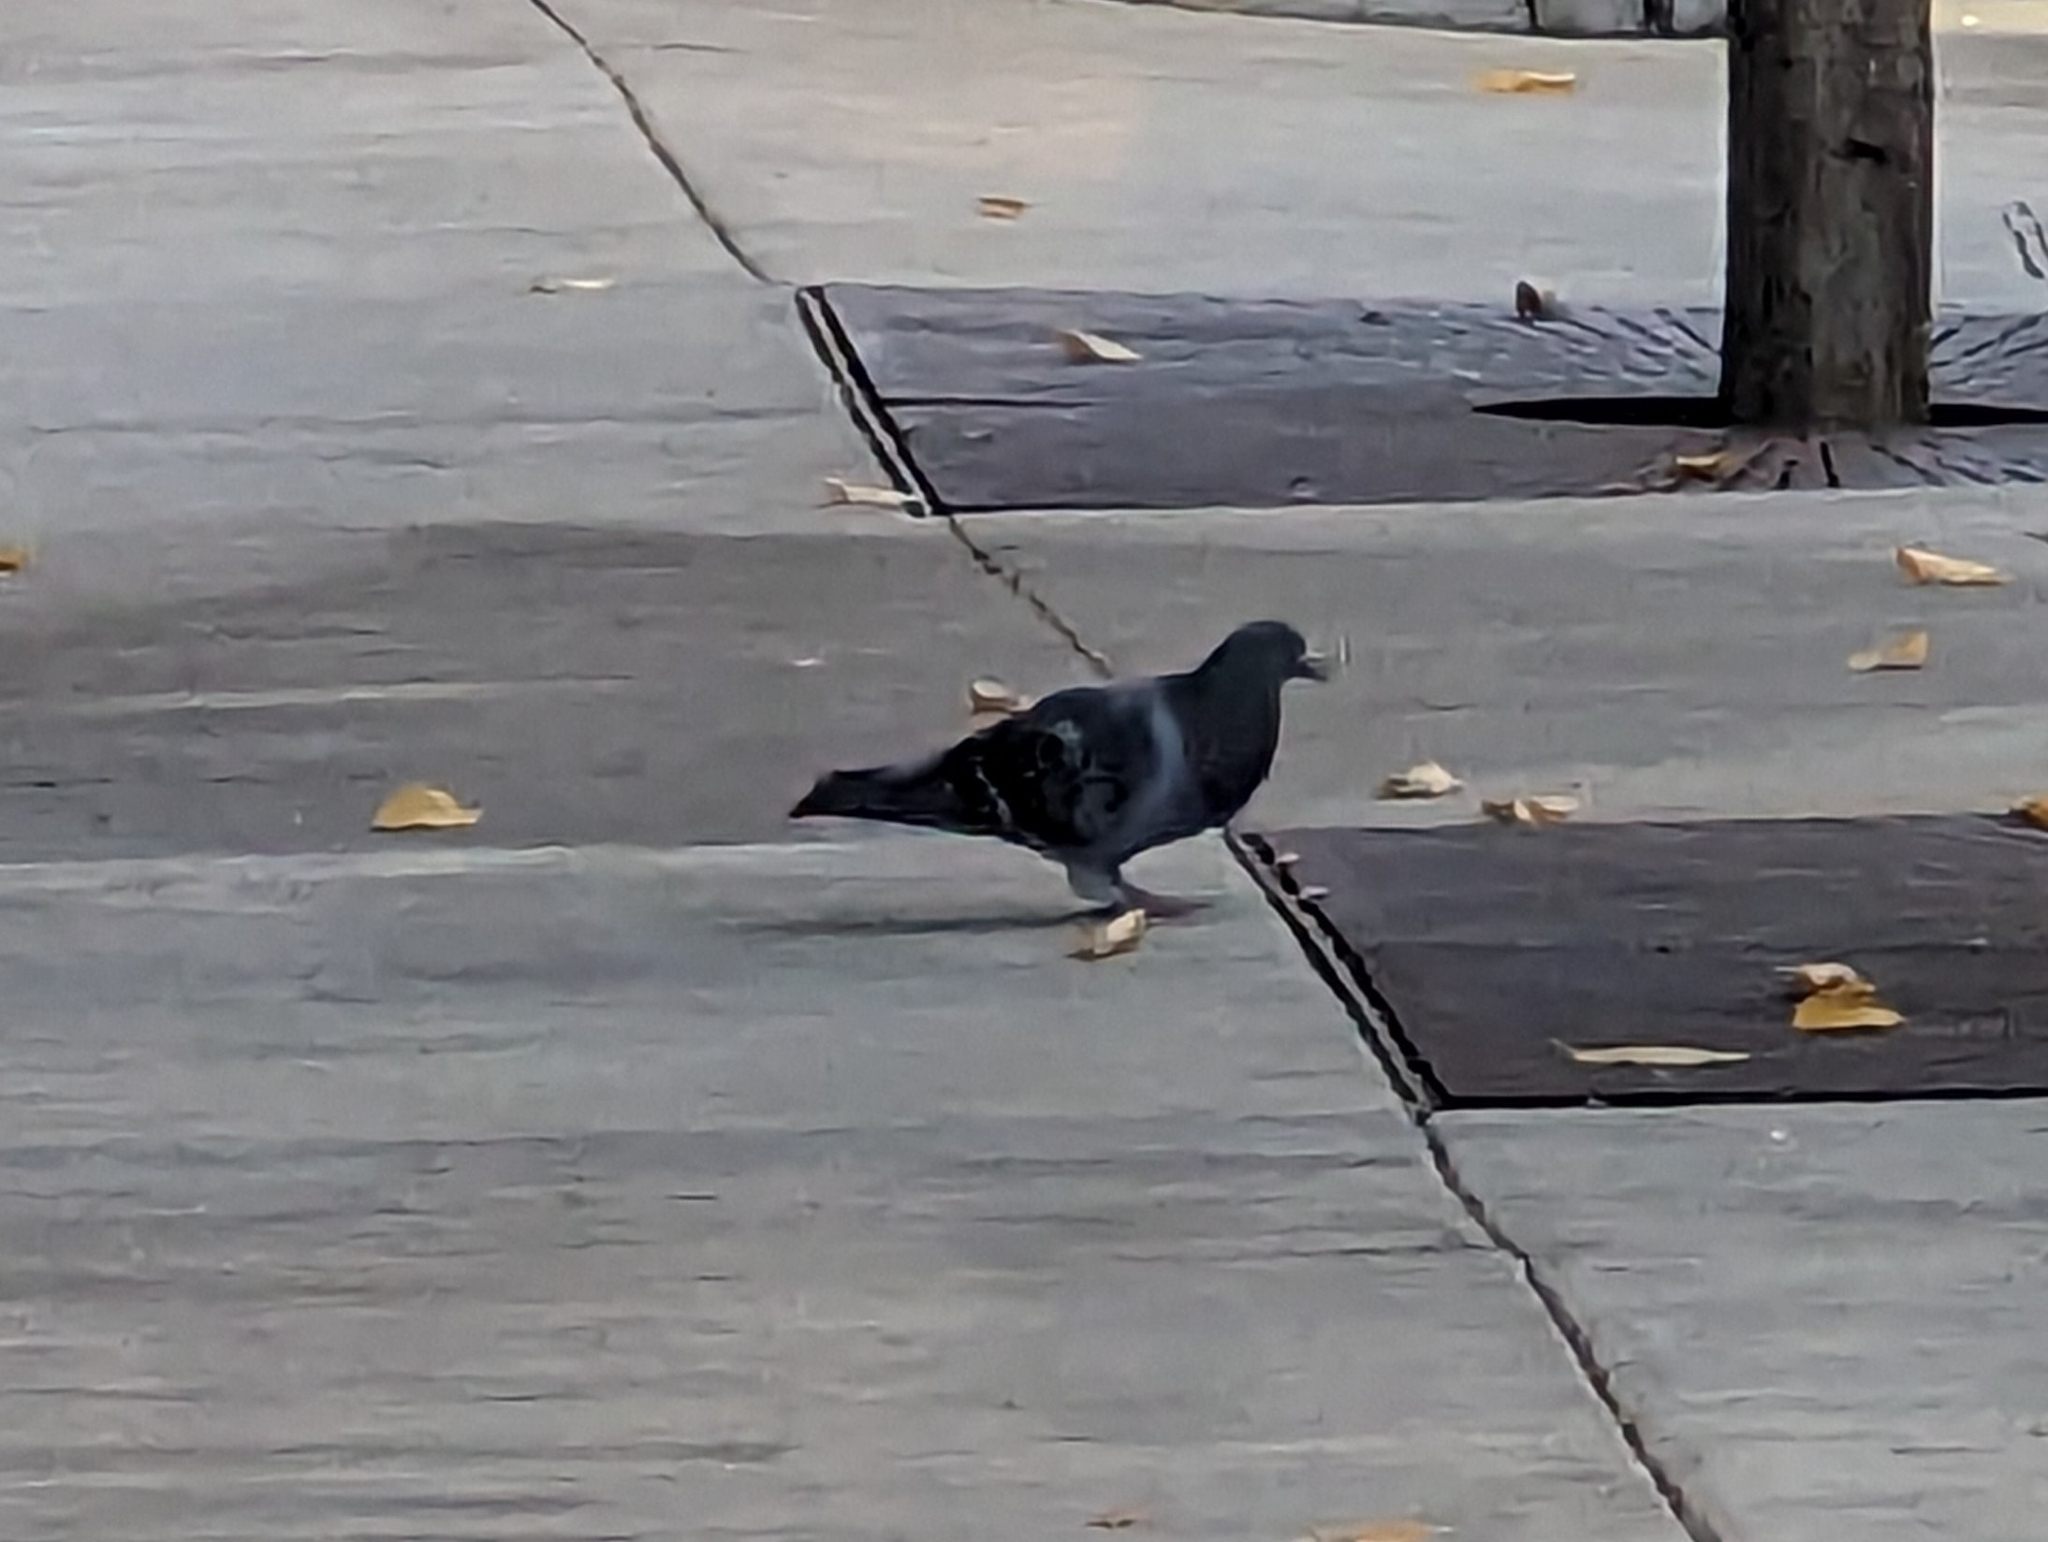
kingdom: Animalia
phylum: Chordata
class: Aves
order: Columbiformes
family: Columbidae
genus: Columba
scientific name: Columba livia
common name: Rock pigeon
